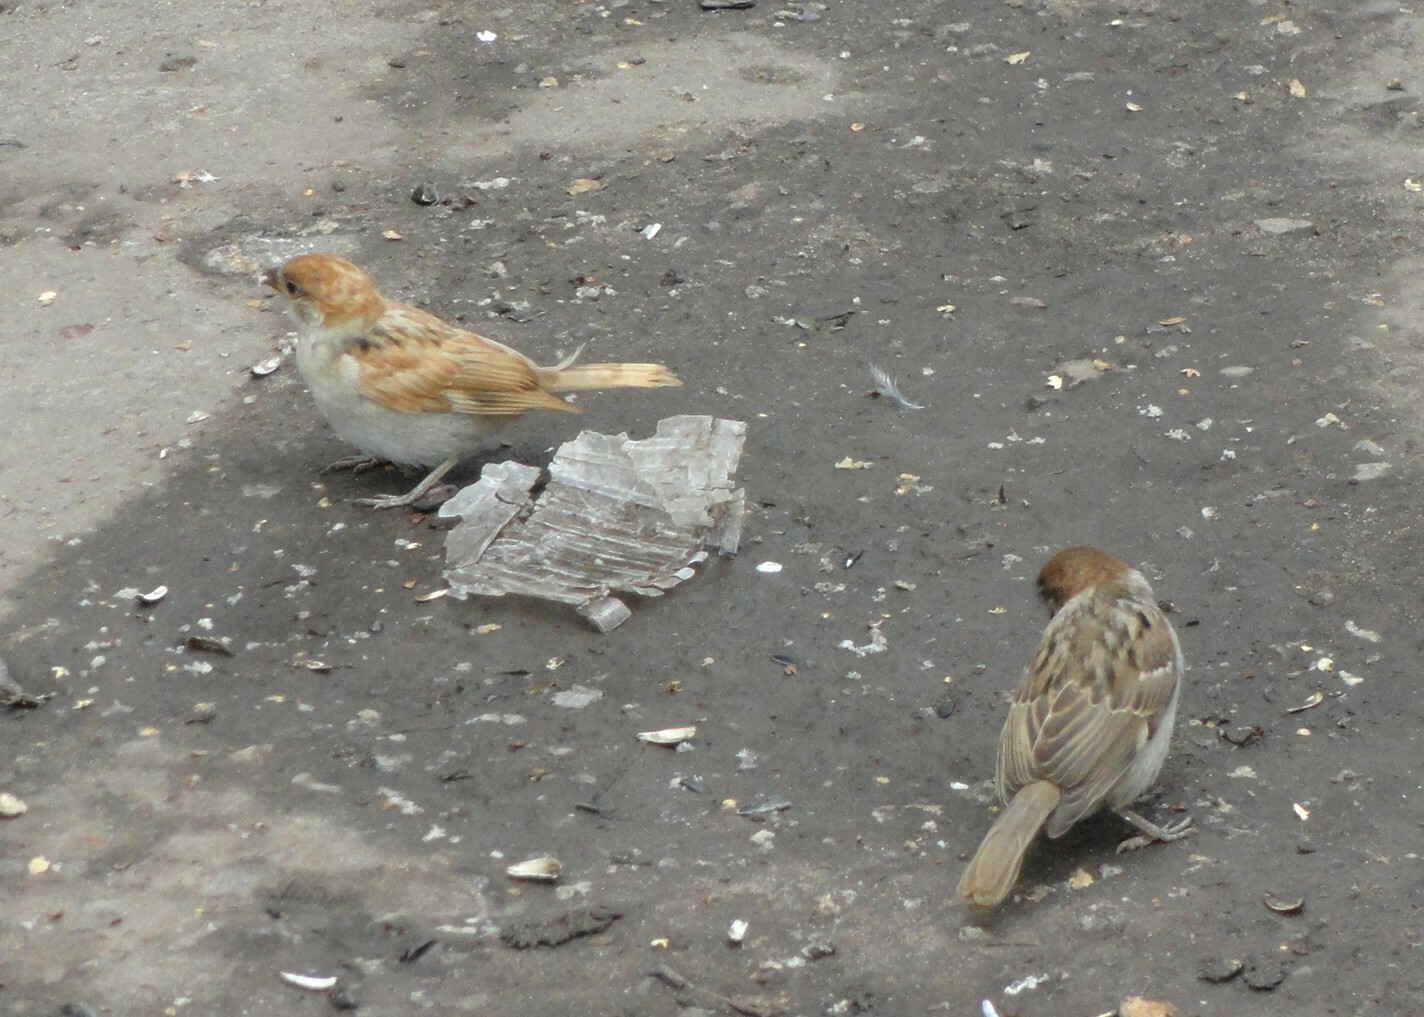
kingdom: Animalia
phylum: Chordata
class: Aves
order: Passeriformes
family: Passeridae
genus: Passer
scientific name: Passer montanus
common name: Eurasian tree sparrow
